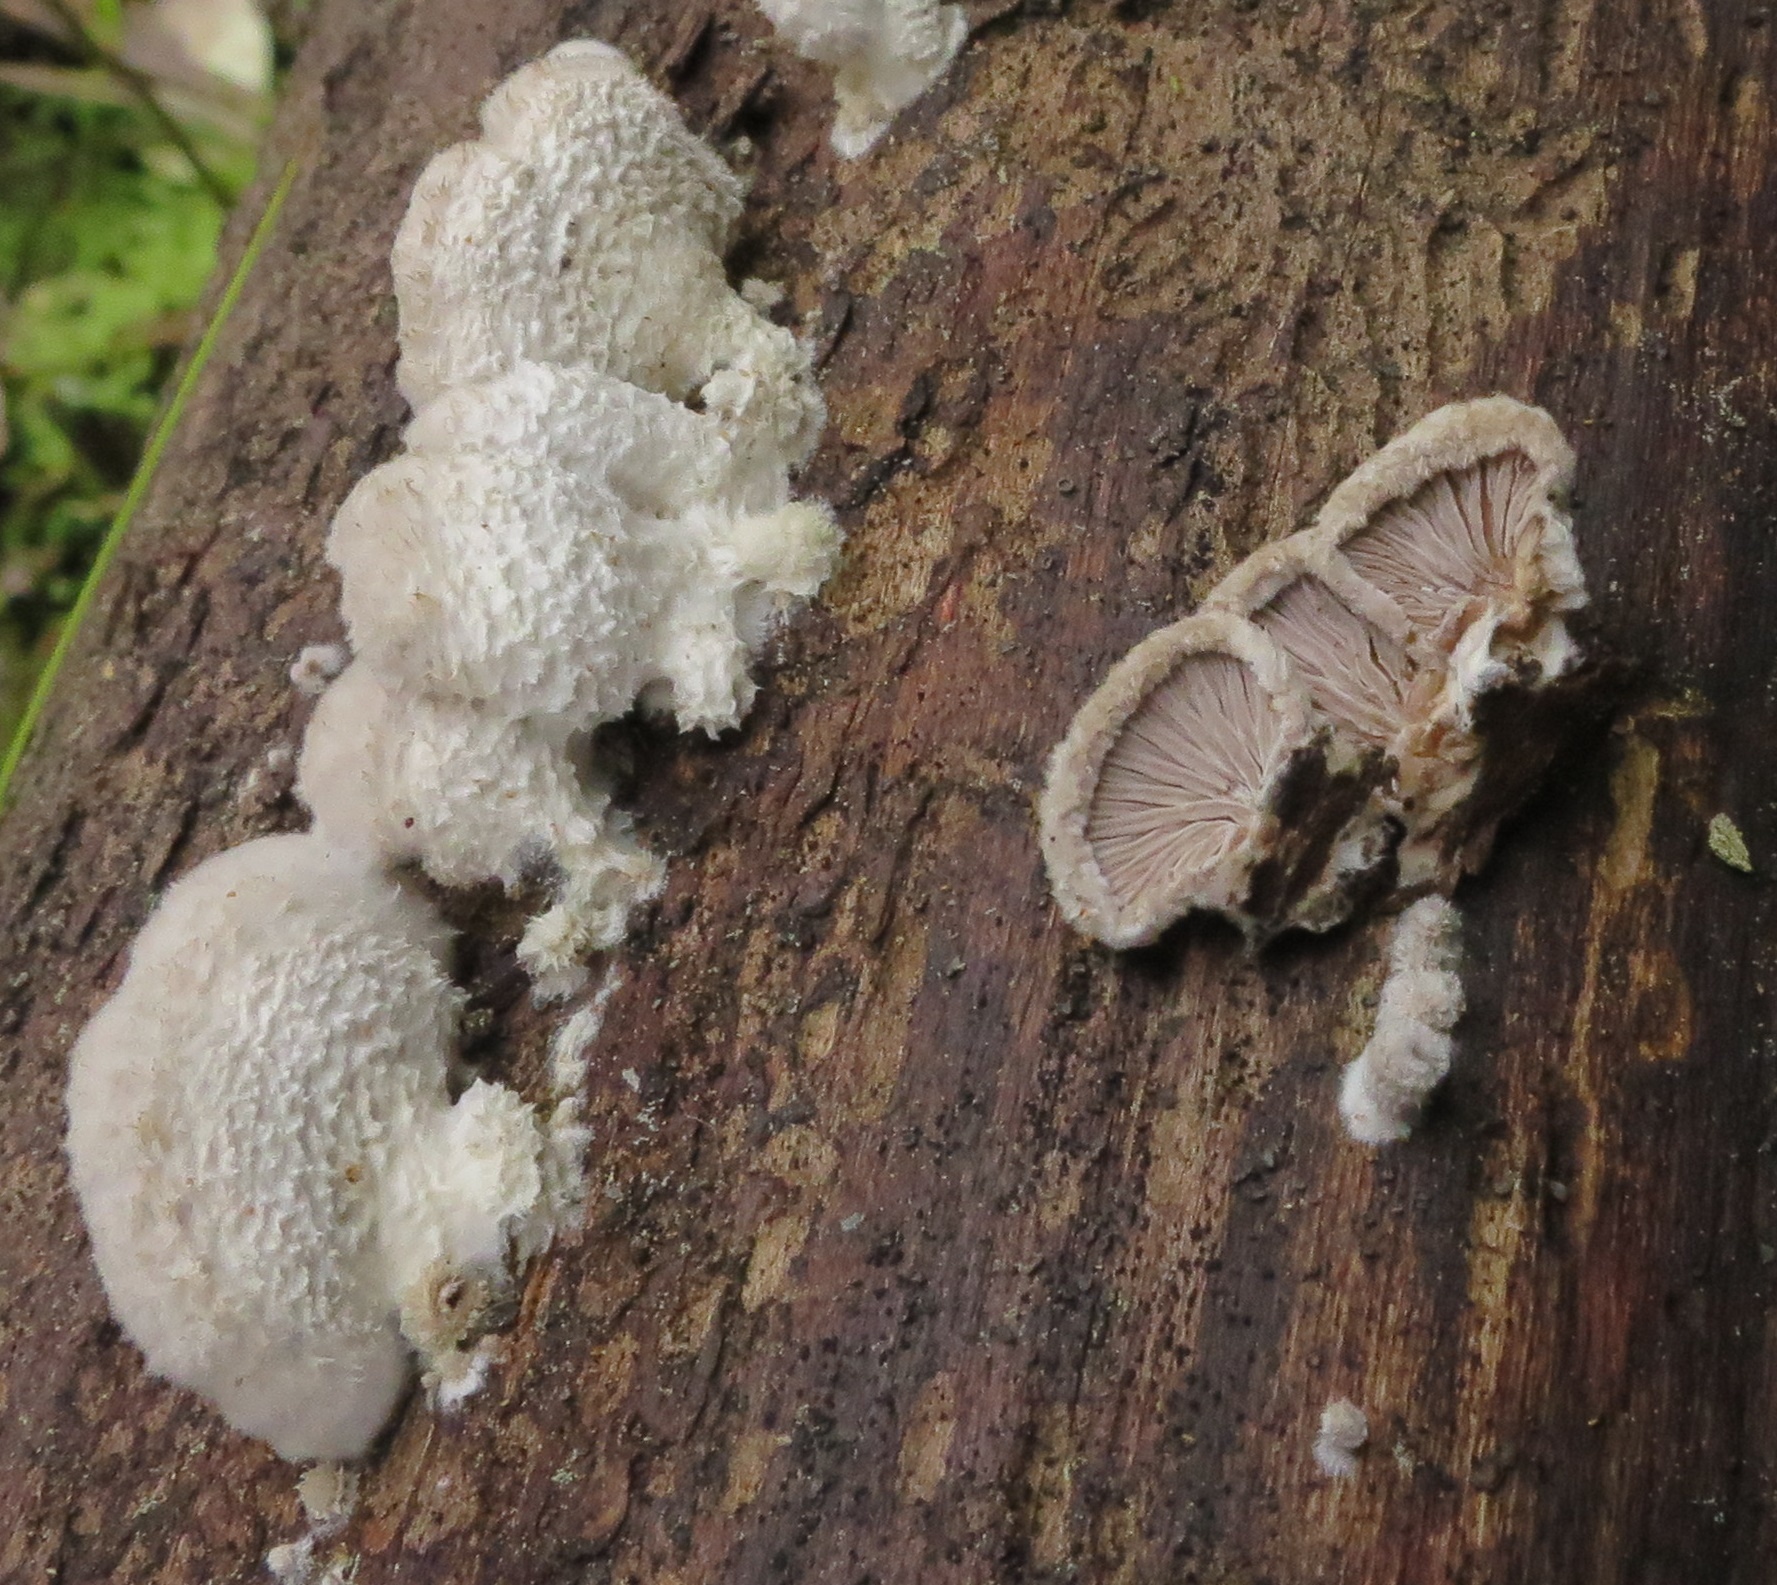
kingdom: Fungi
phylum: Basidiomycota
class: Agaricomycetes
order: Agaricales
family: Schizophyllaceae
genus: Schizophyllum
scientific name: Schizophyllum commune
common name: Common porecrust
